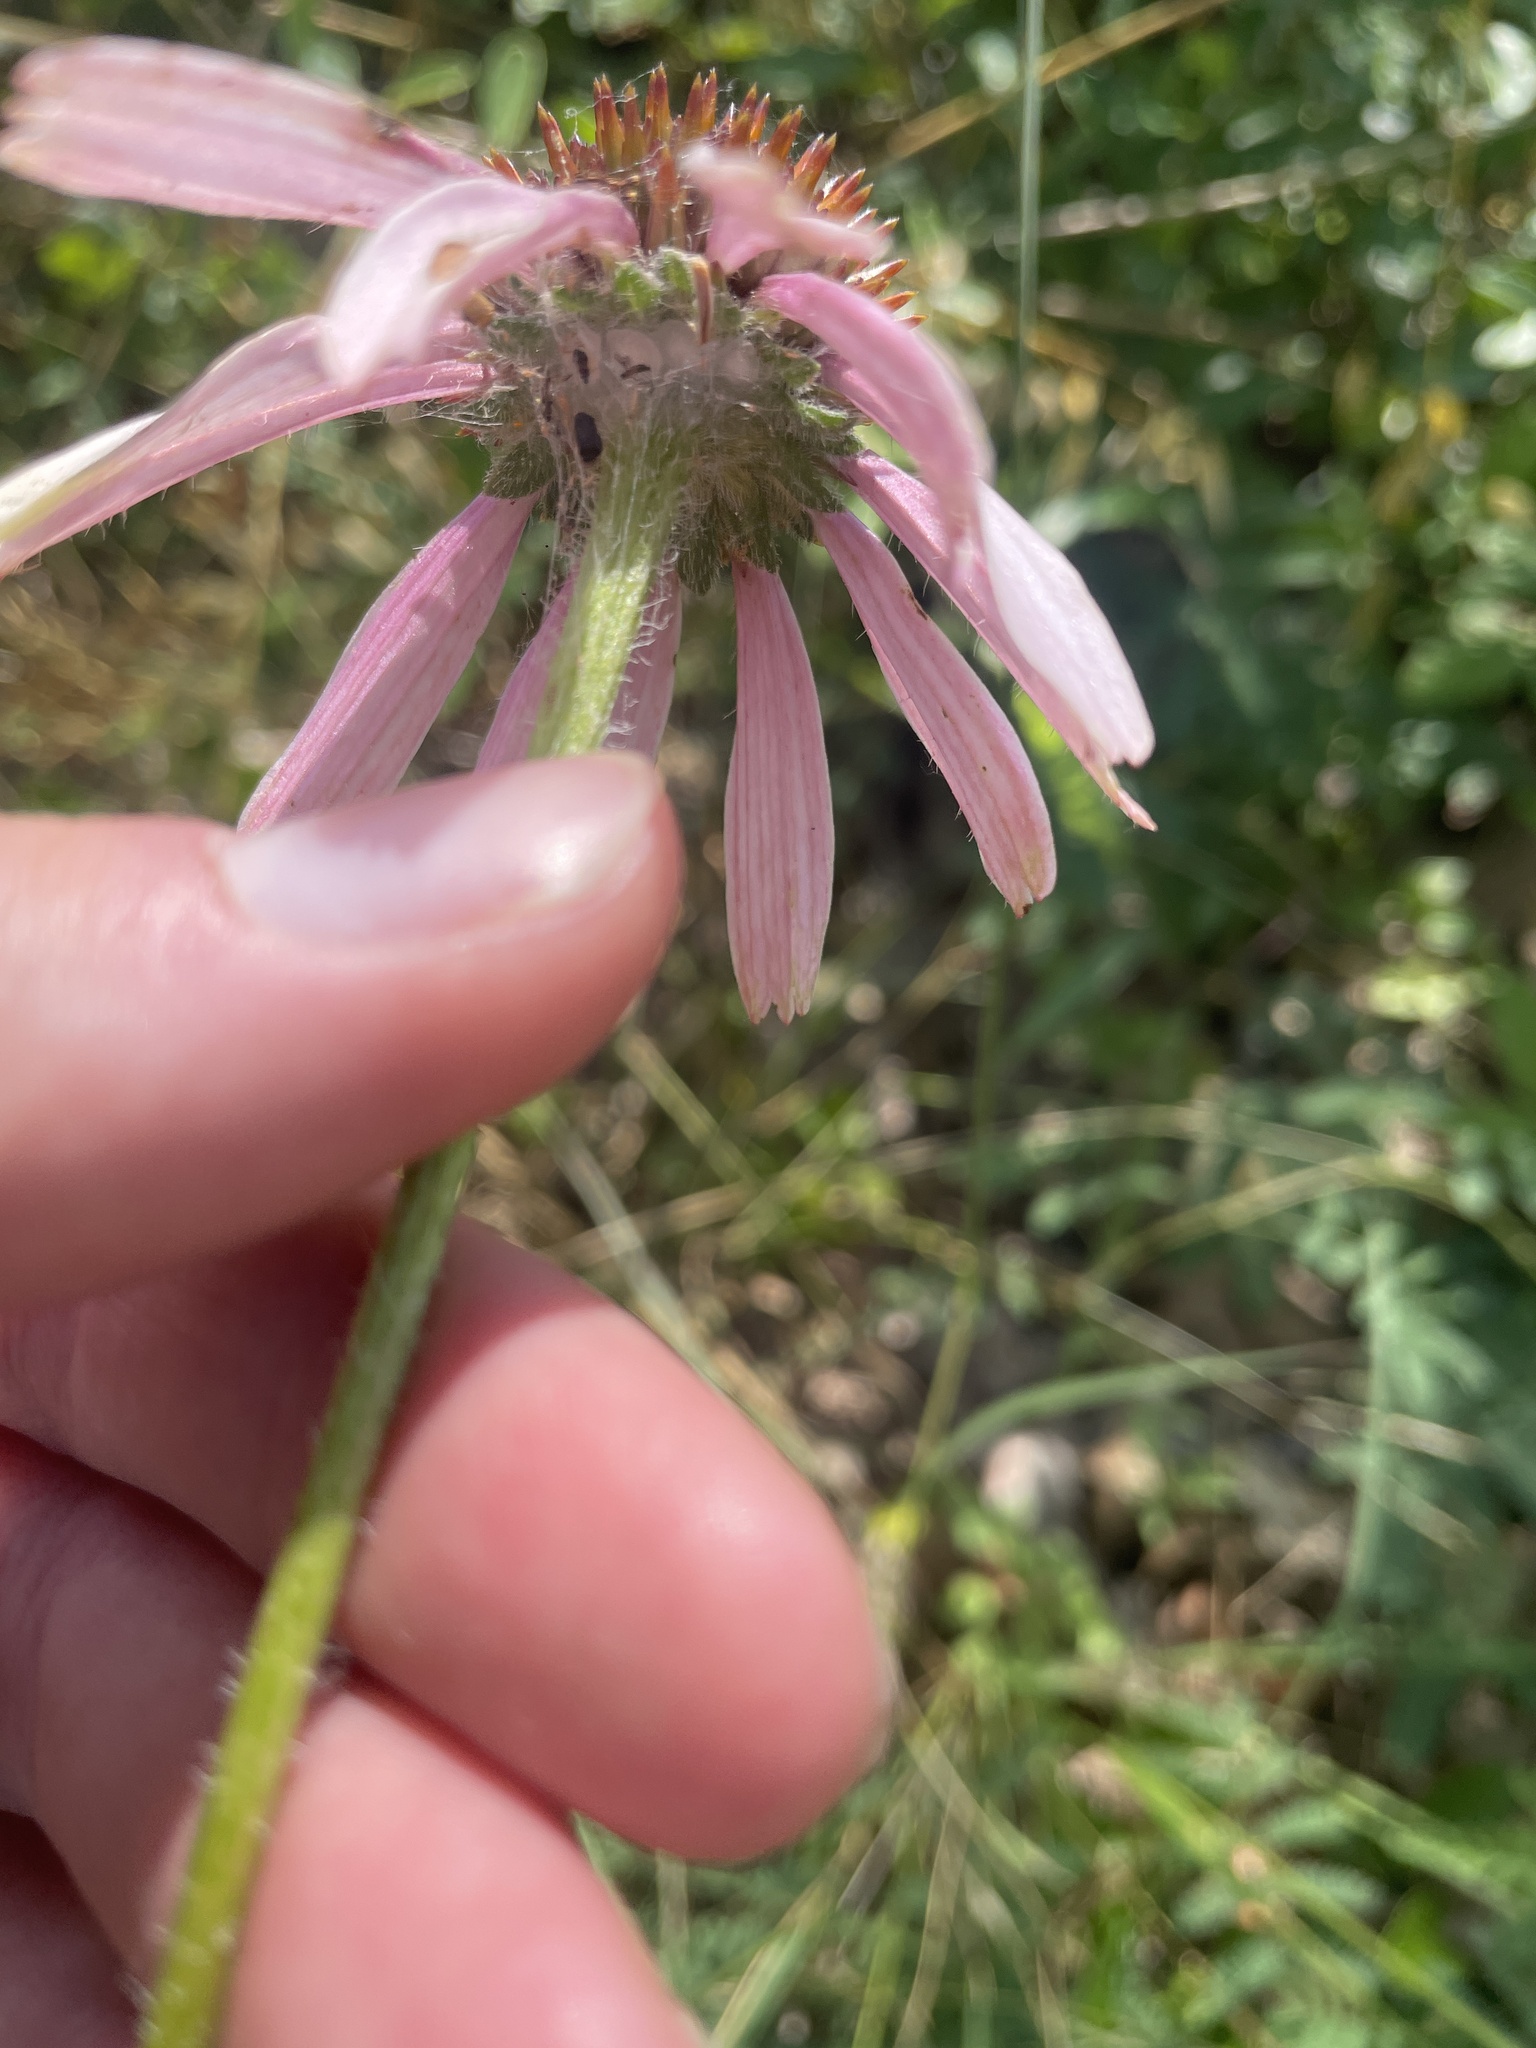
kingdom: Plantae
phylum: Tracheophyta
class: Magnoliopsida
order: Asterales
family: Asteraceae
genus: Echinacea
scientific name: Echinacea angustifolia
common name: Black-sampson echinacea
